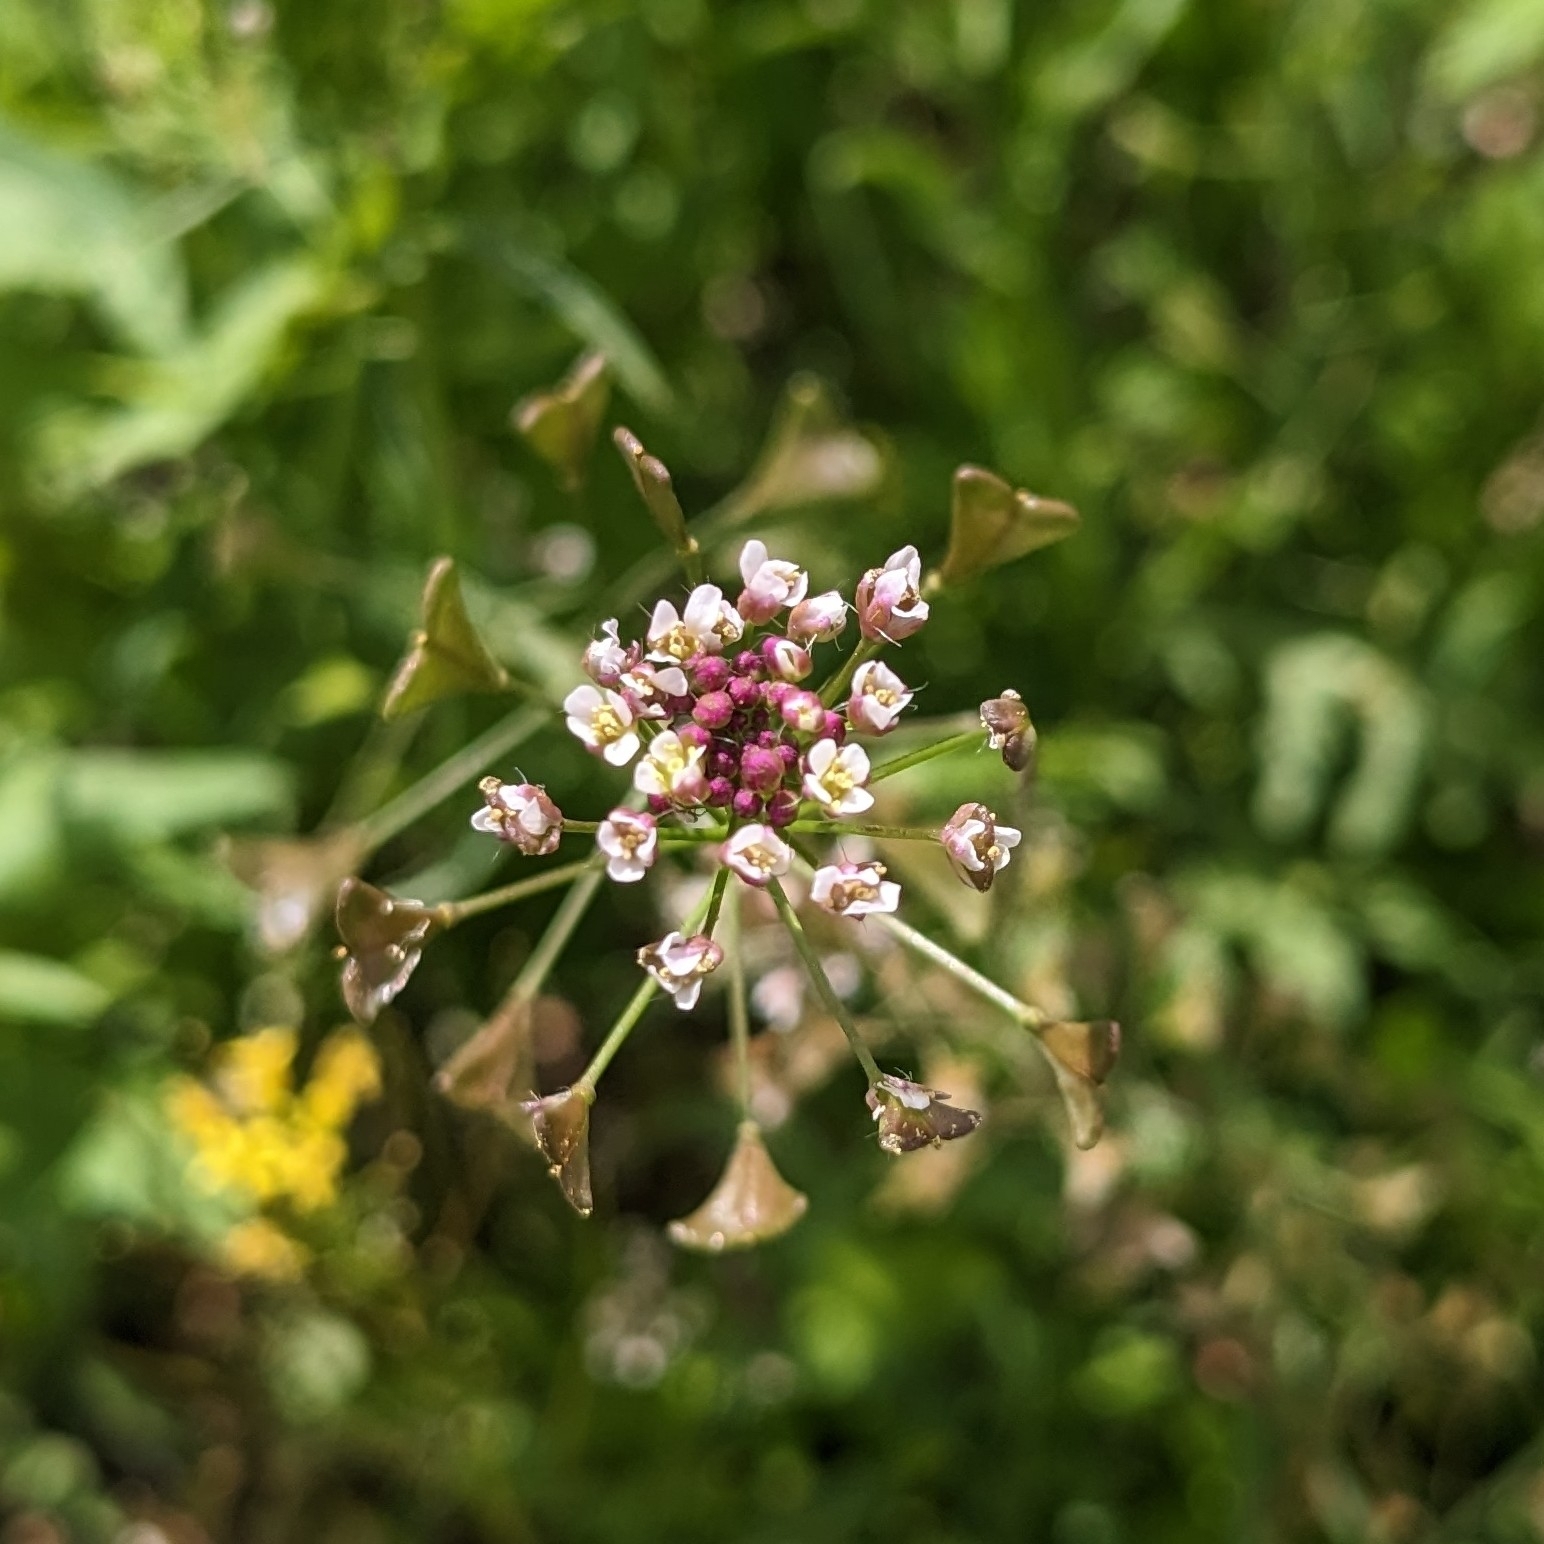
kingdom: Plantae
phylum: Tracheophyta
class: Magnoliopsida
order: Brassicales
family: Brassicaceae
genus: Capsella
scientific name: Capsella bursa-pastoris
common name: Shepherd's purse
